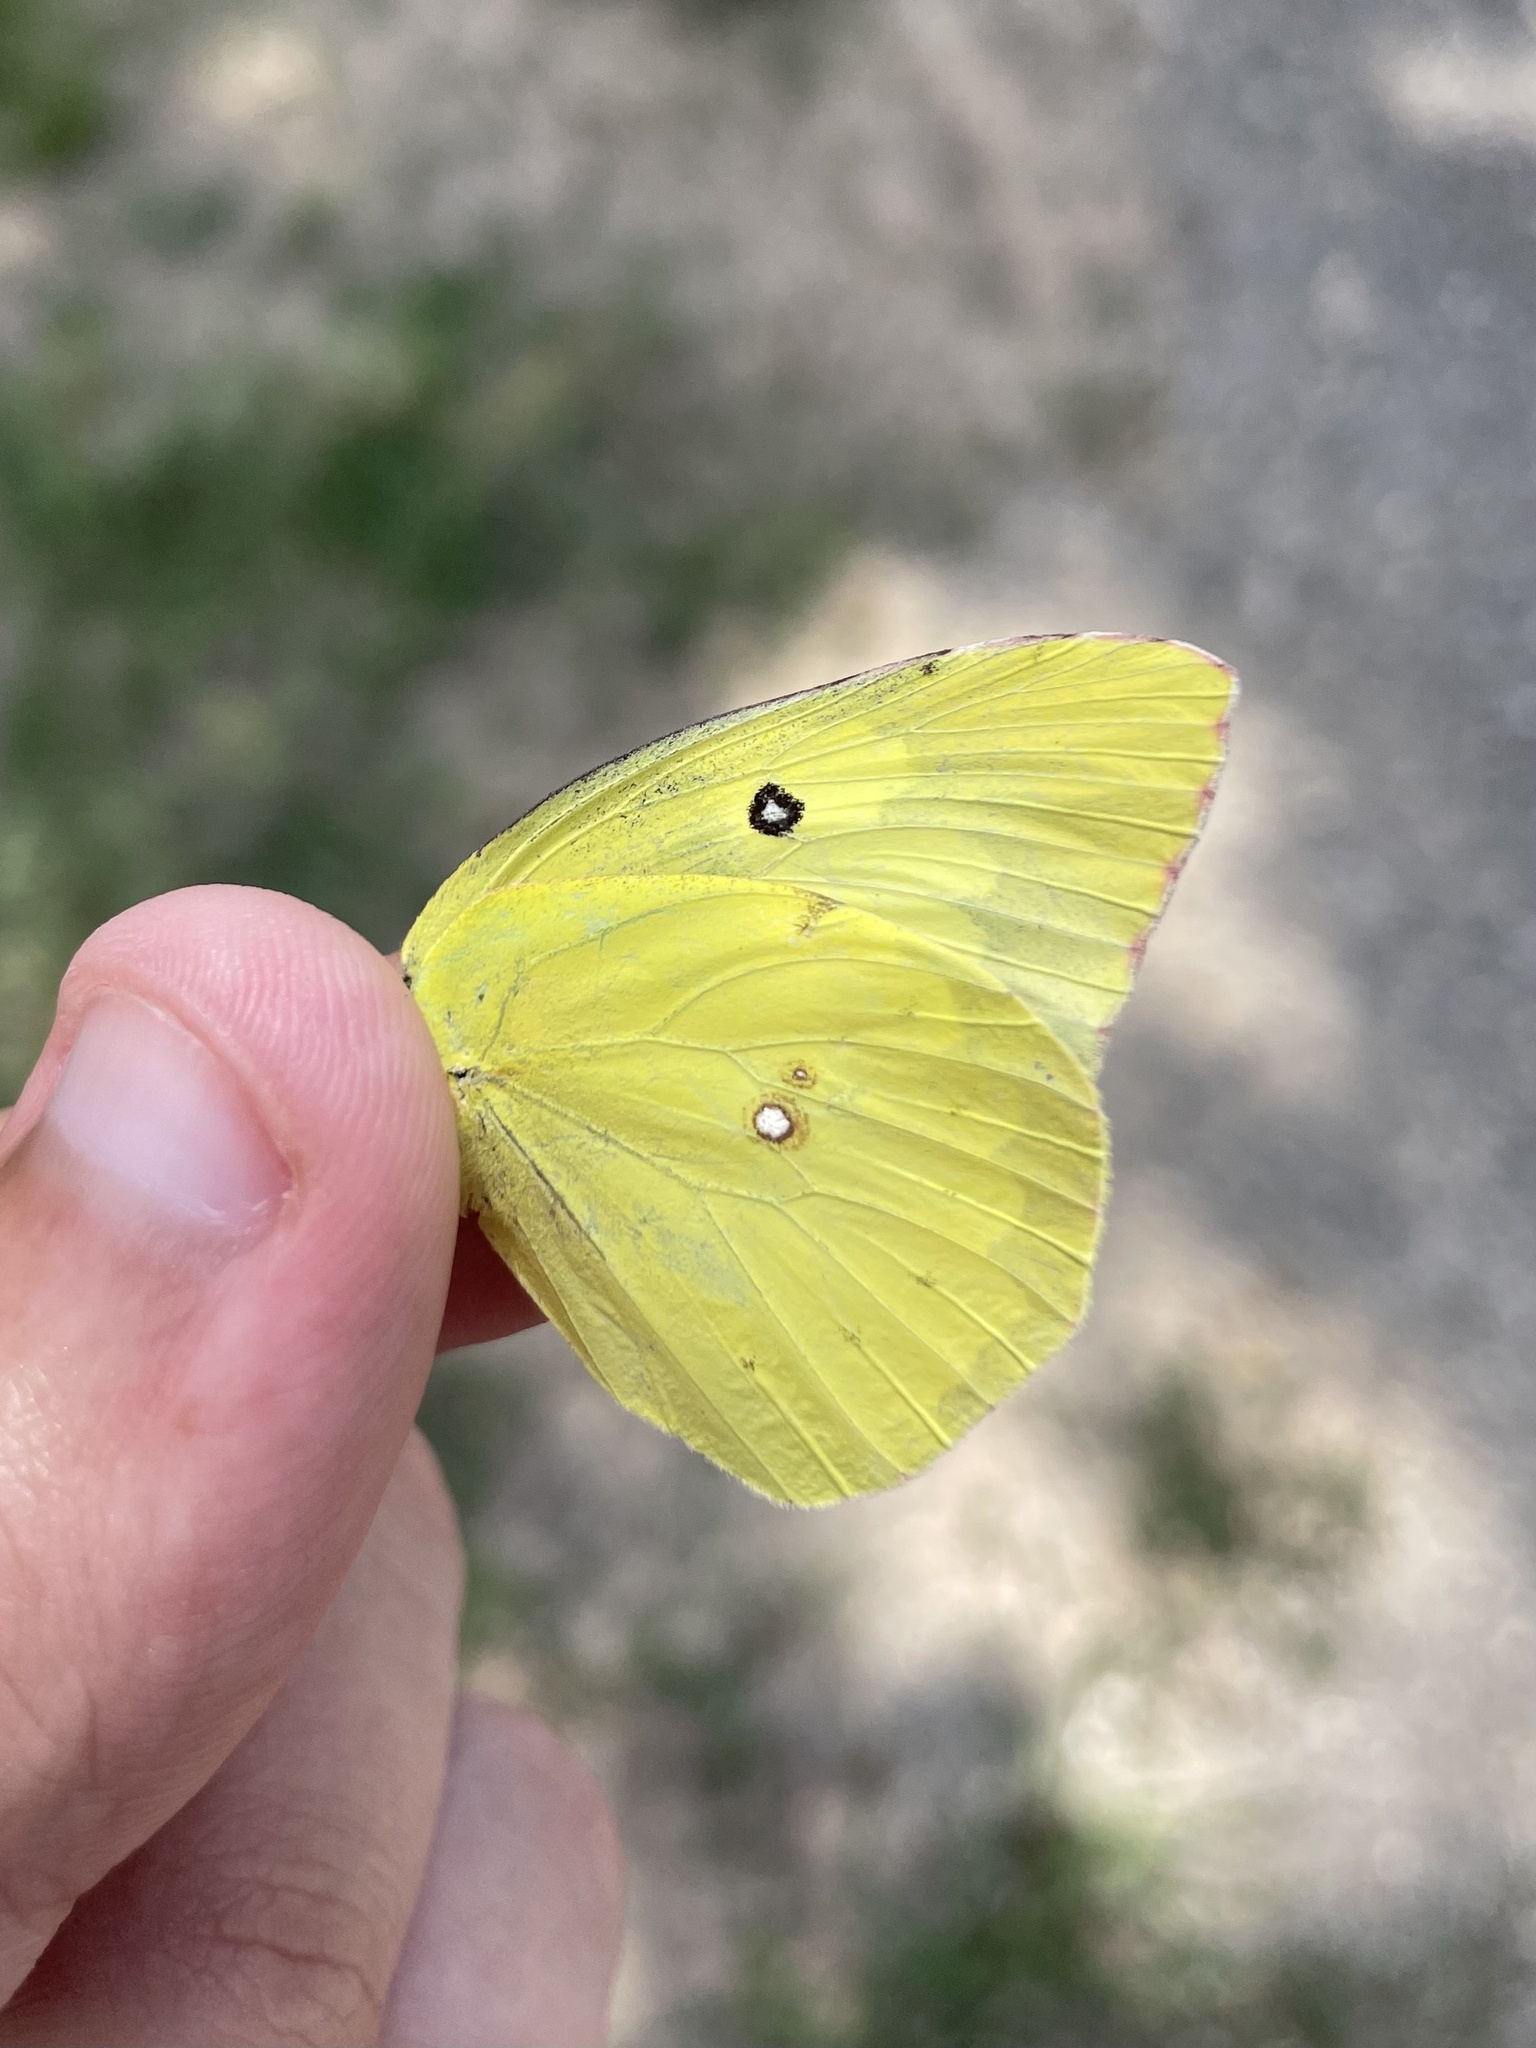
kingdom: Animalia
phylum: Arthropoda
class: Insecta
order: Lepidoptera
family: Pieridae
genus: Zerene
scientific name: Zerene cesonia
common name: Southern dogface
